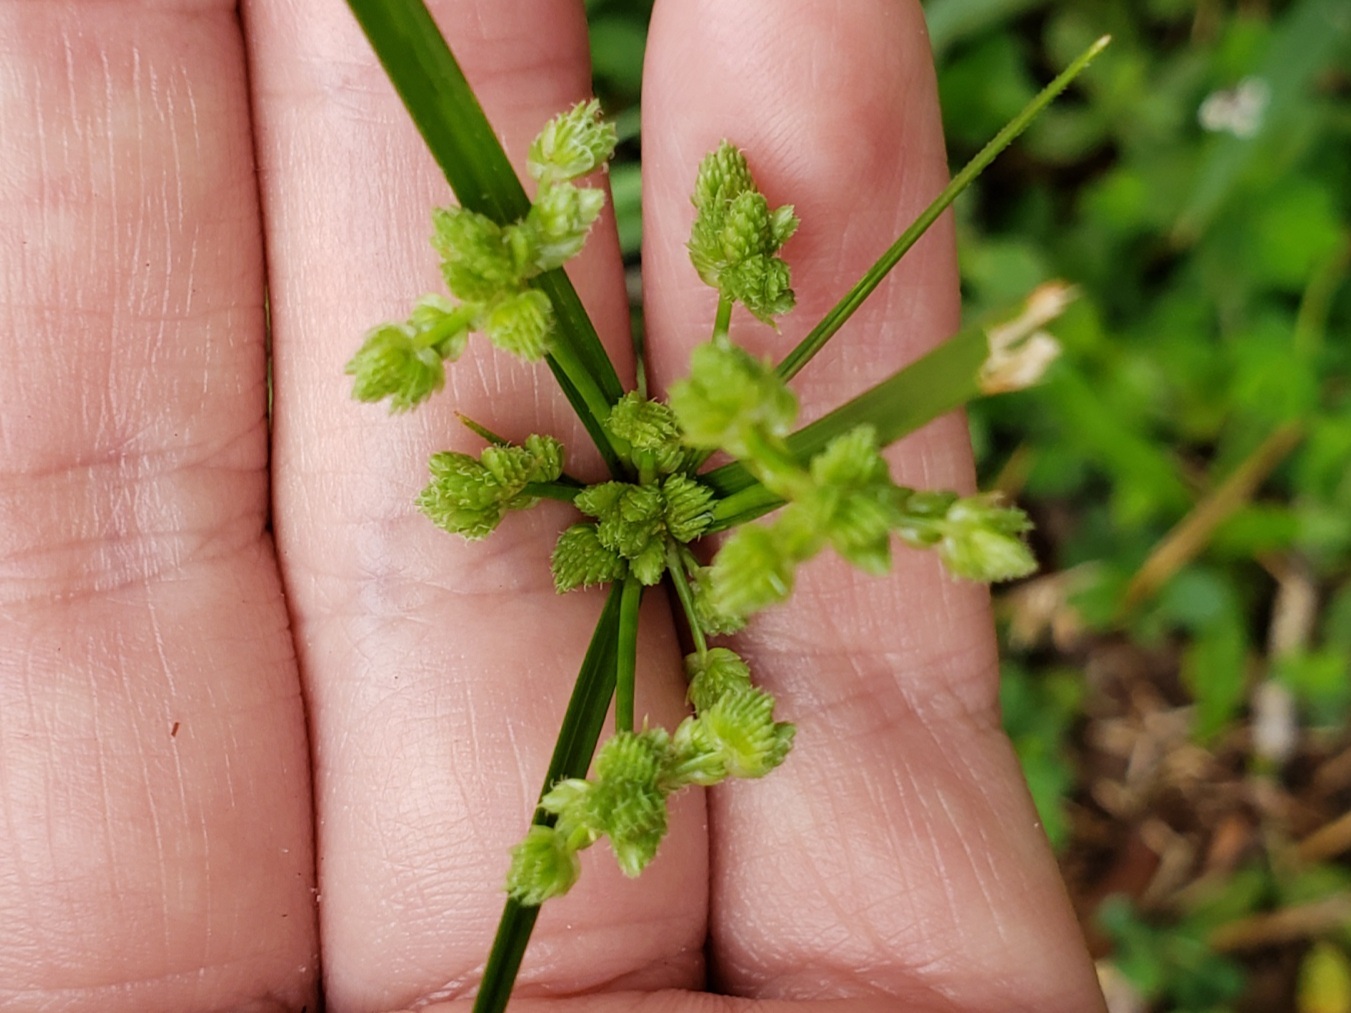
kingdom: Plantae
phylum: Tracheophyta
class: Liliopsida
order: Poales
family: Cyperaceae
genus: Cyperus
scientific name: Cyperus surinamensis
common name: Tropical flat sedge
